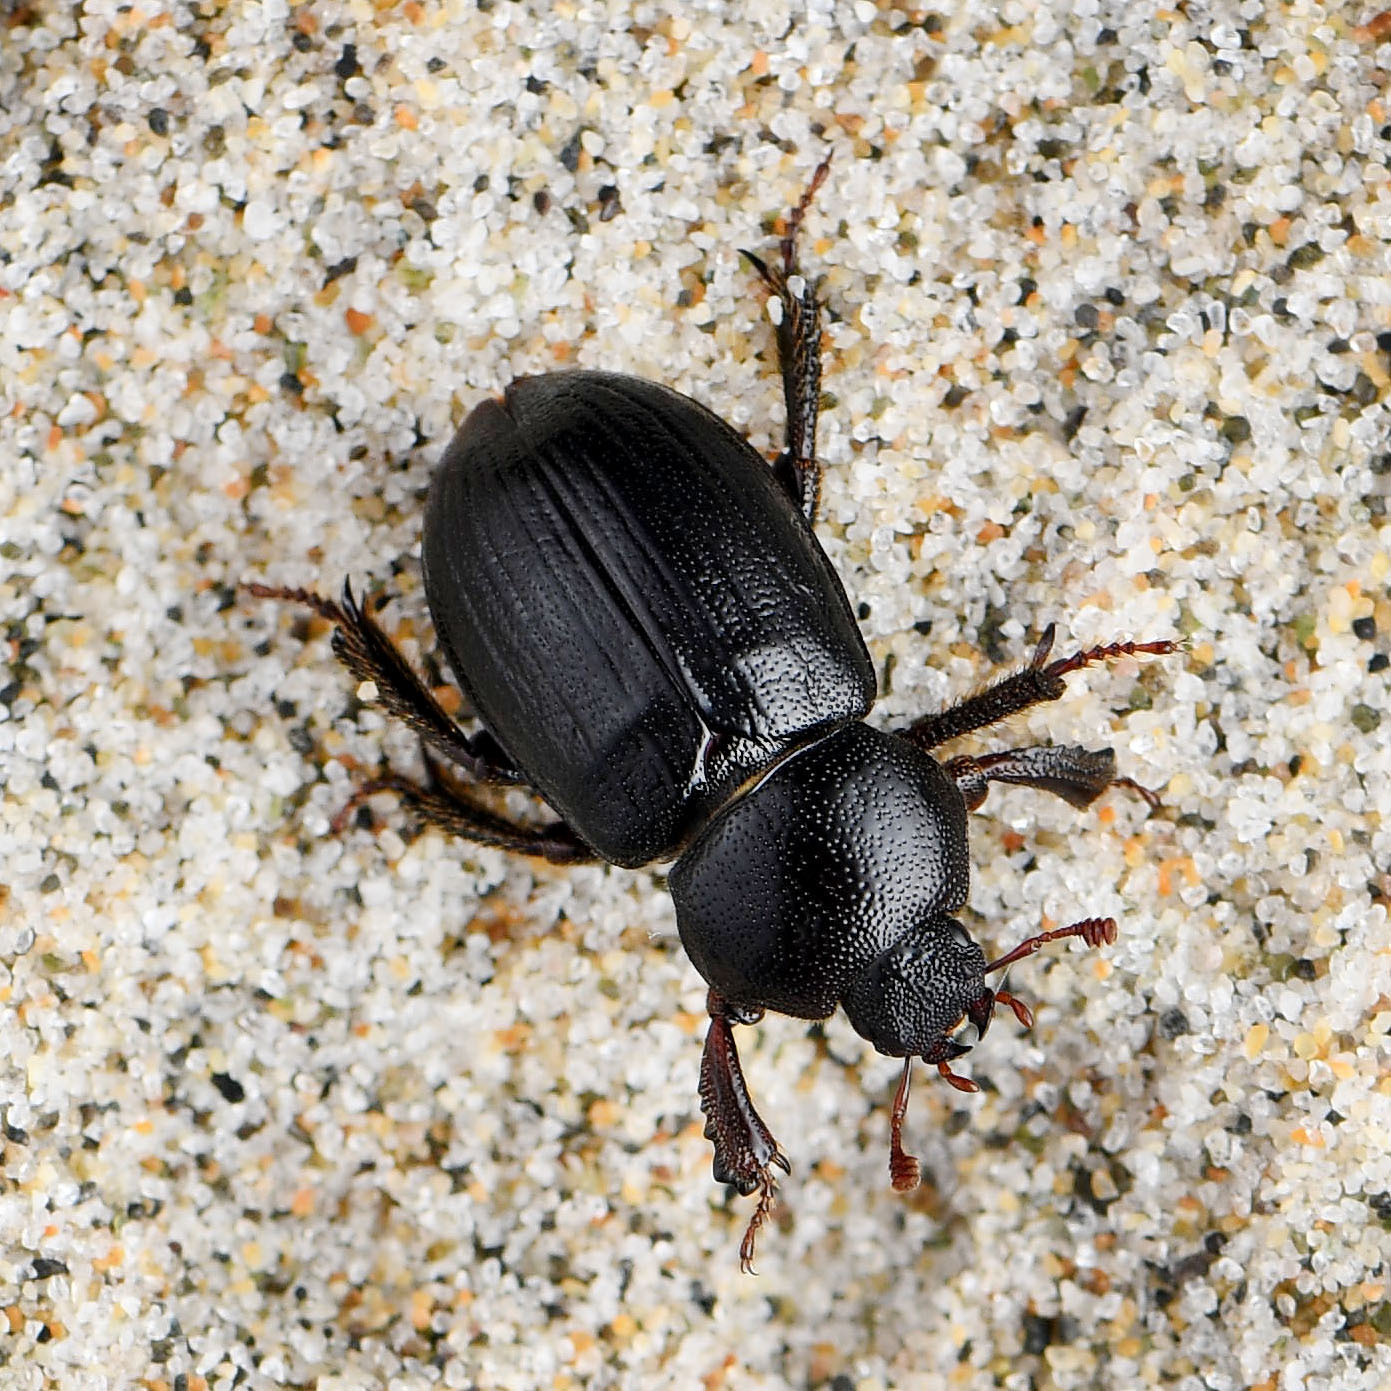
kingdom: Animalia
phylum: Arthropoda
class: Insecta
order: Coleoptera
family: Lucanidae
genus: Platyceroides
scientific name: Platyceroides keeni
